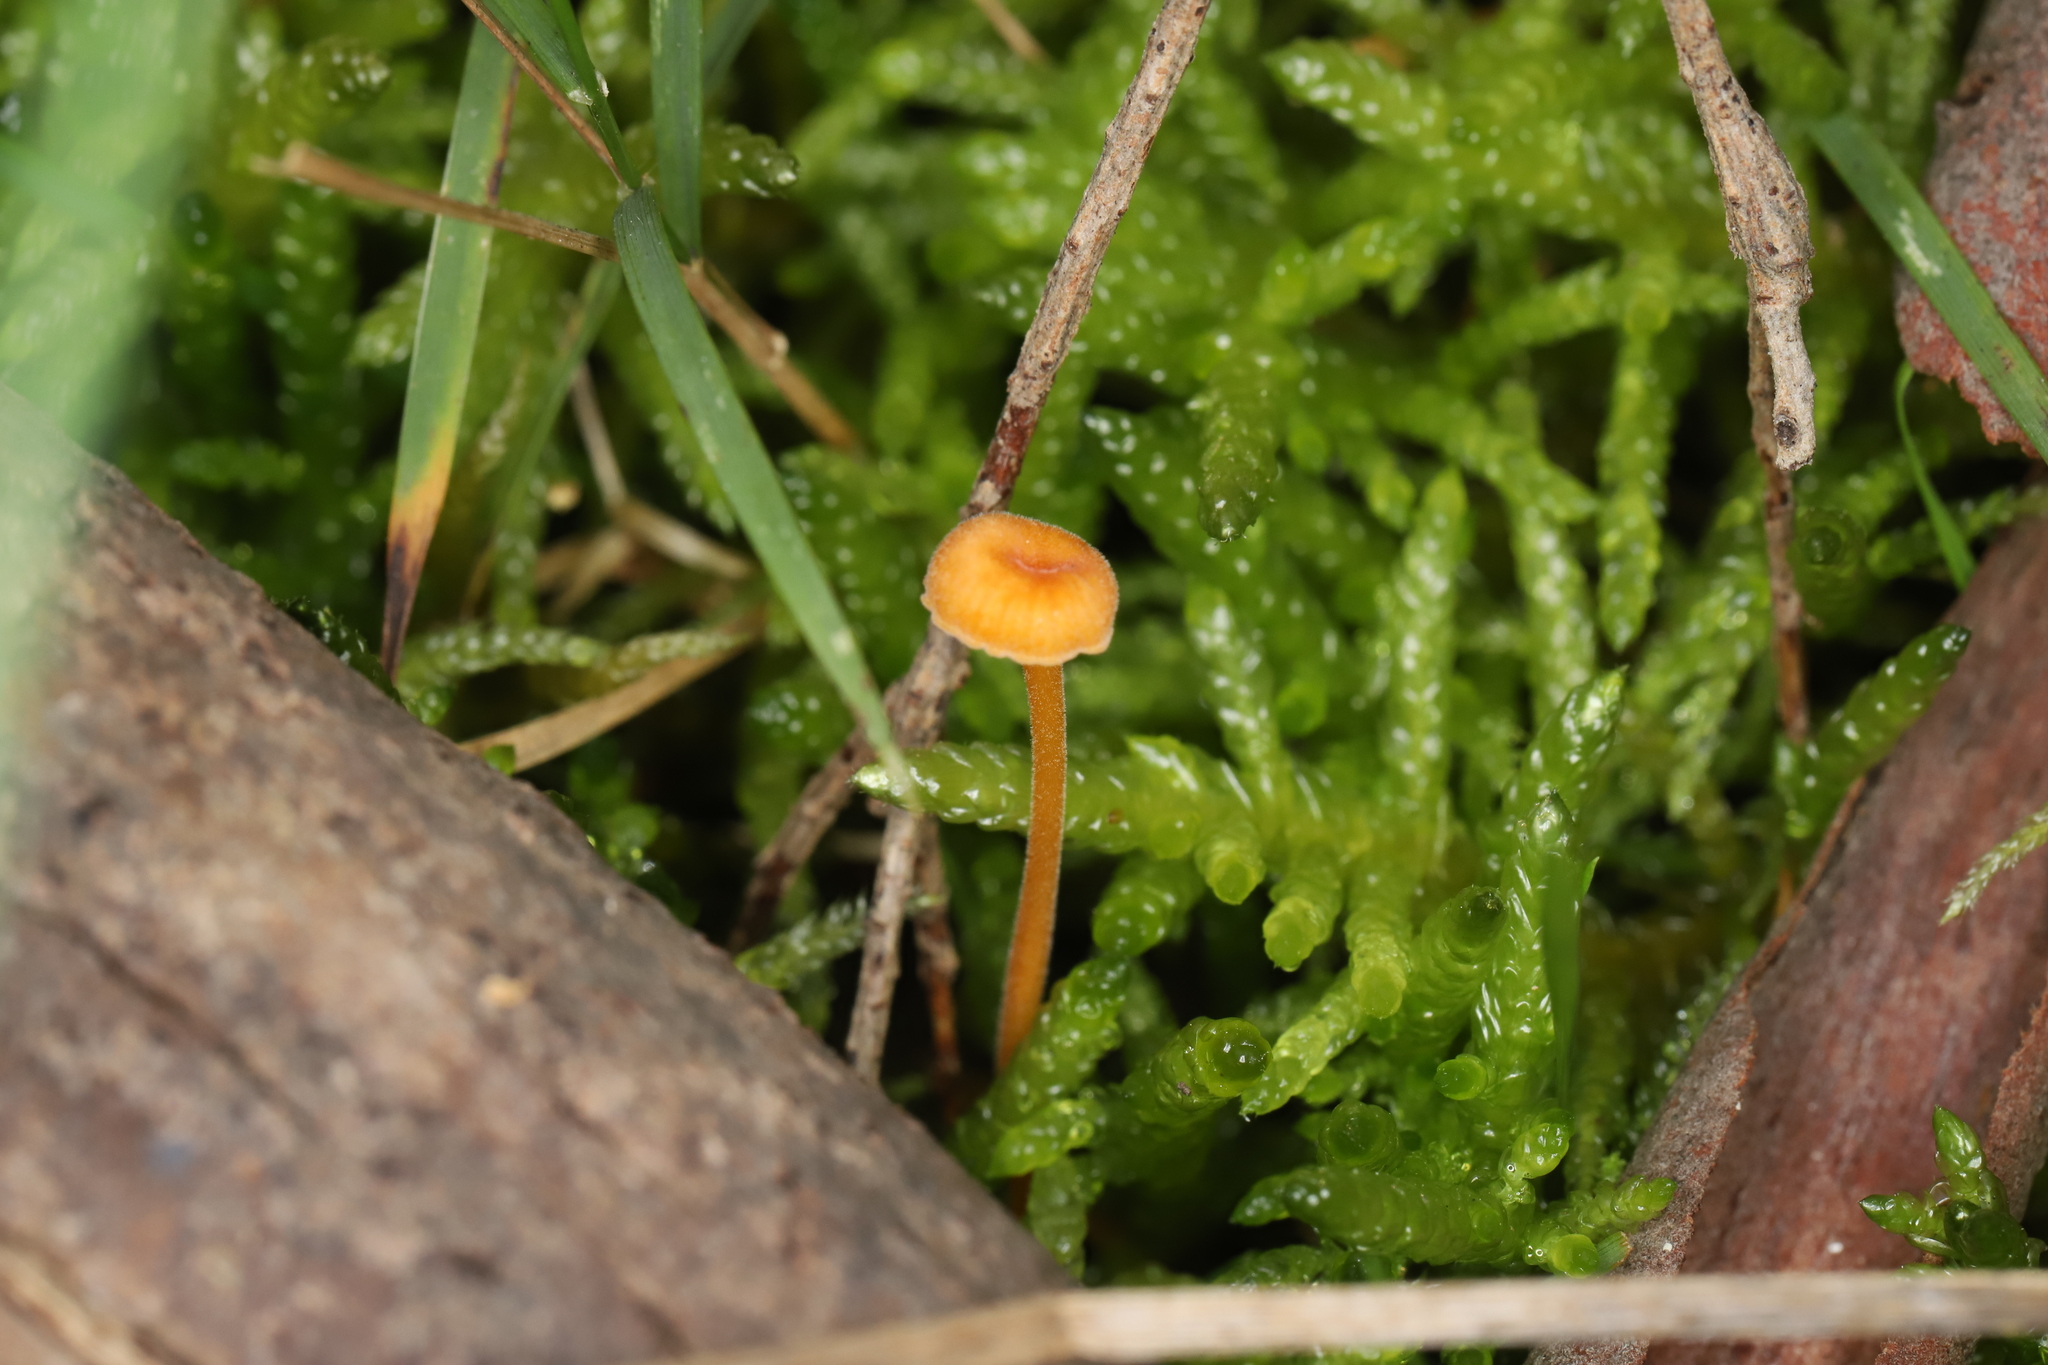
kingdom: Fungi
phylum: Basidiomycota
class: Agaricomycetes
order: Hymenochaetales
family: Rickenellaceae
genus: Rickenella
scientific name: Rickenella fibula
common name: Orange mosscap
